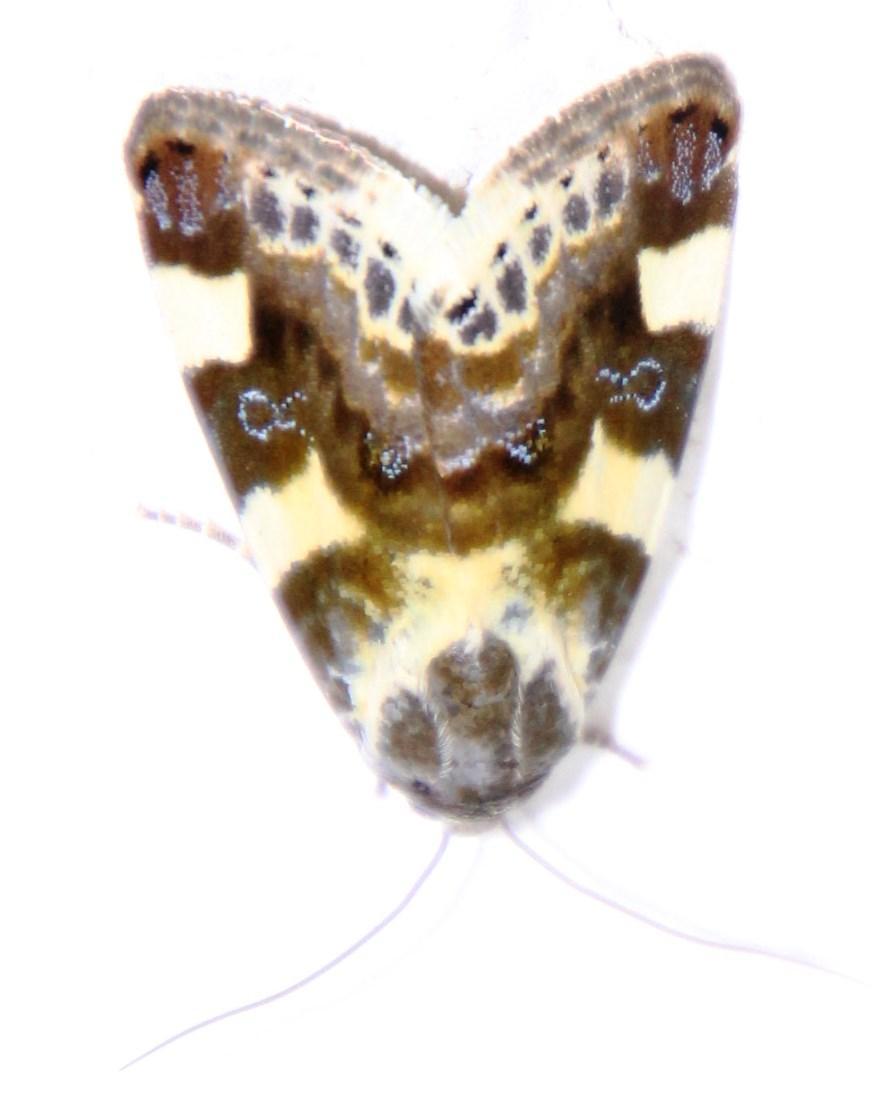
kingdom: Animalia
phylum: Arthropoda
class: Insecta
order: Lepidoptera
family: Noctuidae
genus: Acontia
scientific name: Acontia umbrigera
